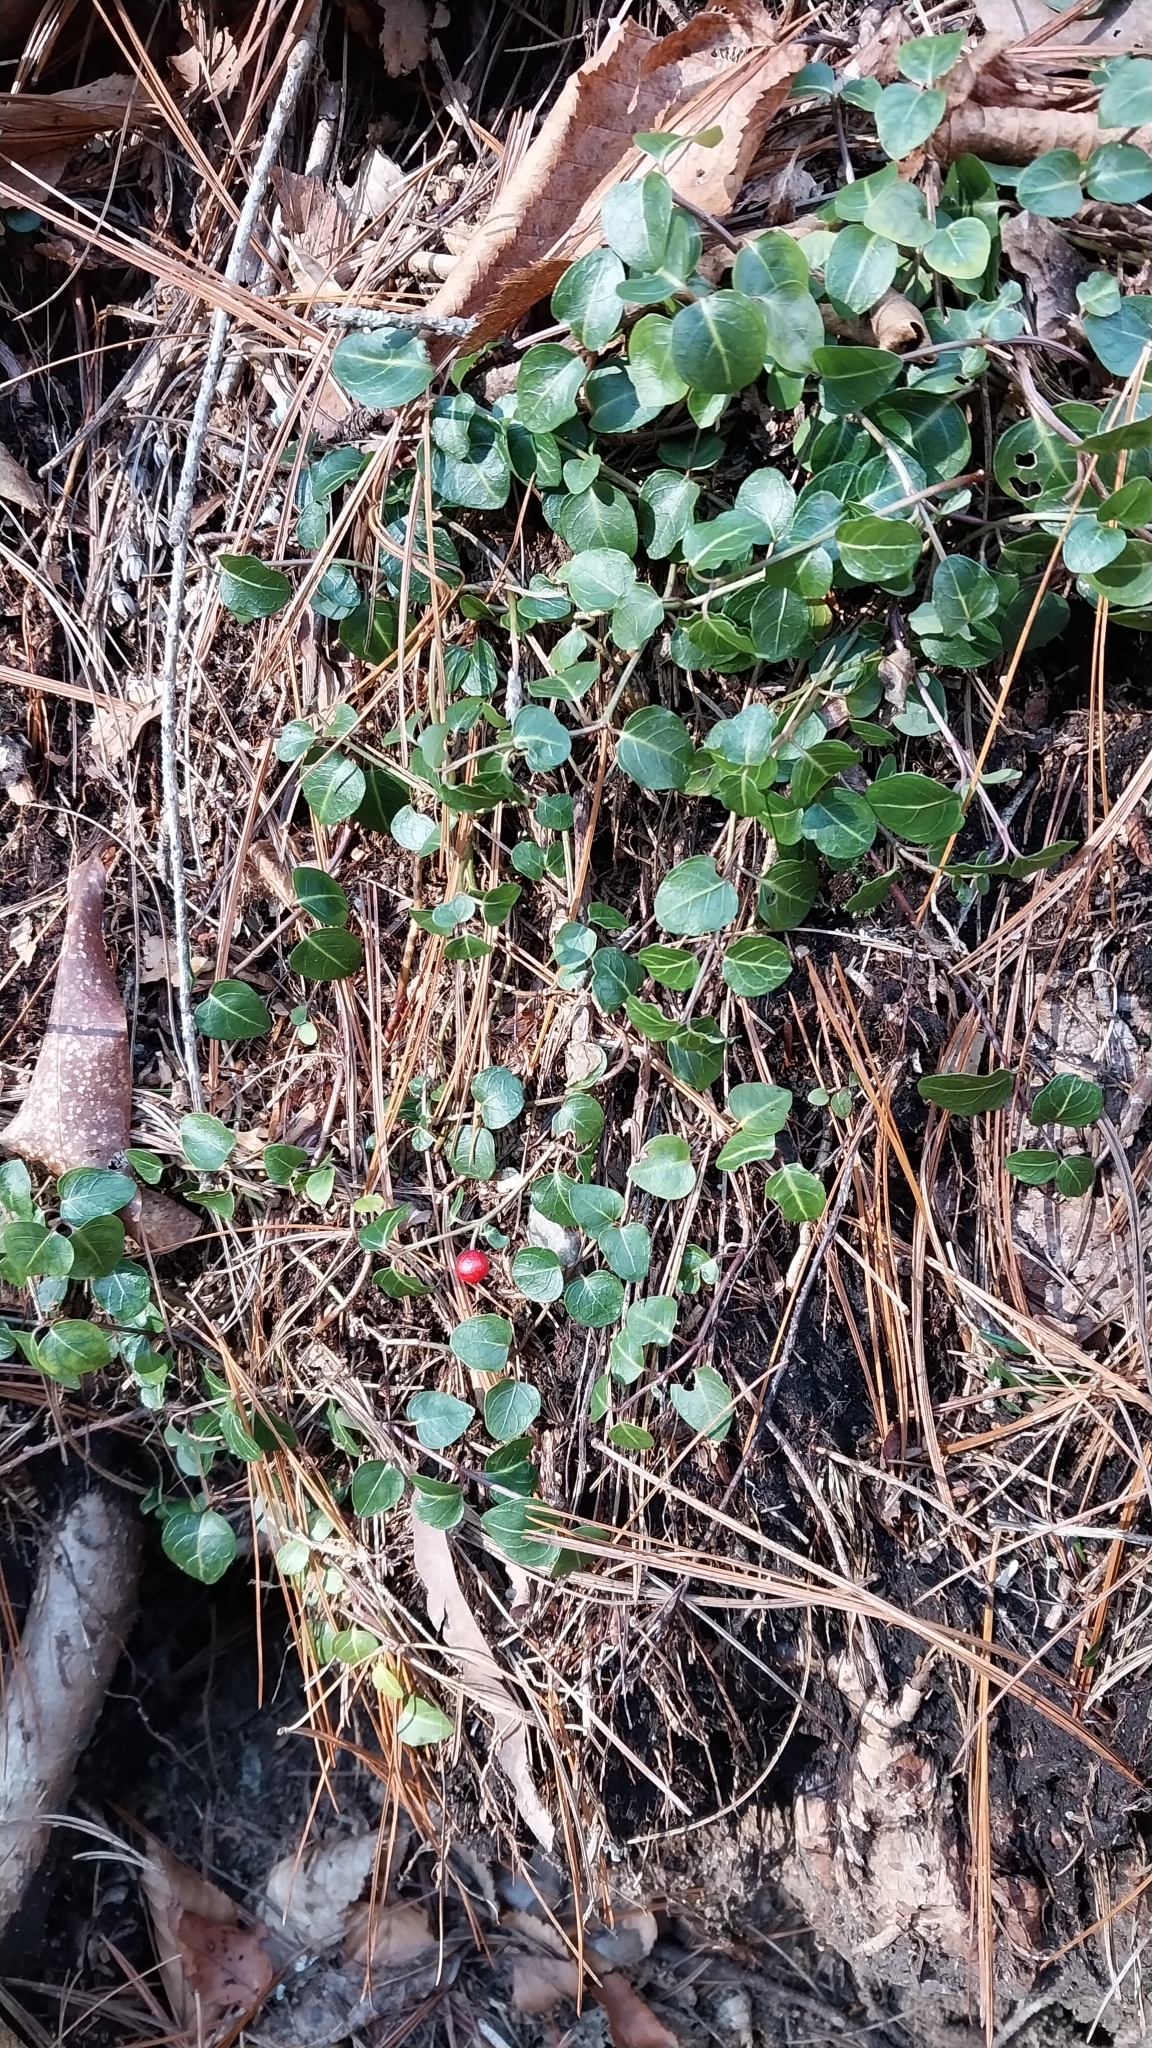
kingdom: Plantae
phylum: Tracheophyta
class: Magnoliopsida
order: Gentianales
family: Rubiaceae
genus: Mitchella
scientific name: Mitchella repens
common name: Partridge-berry
